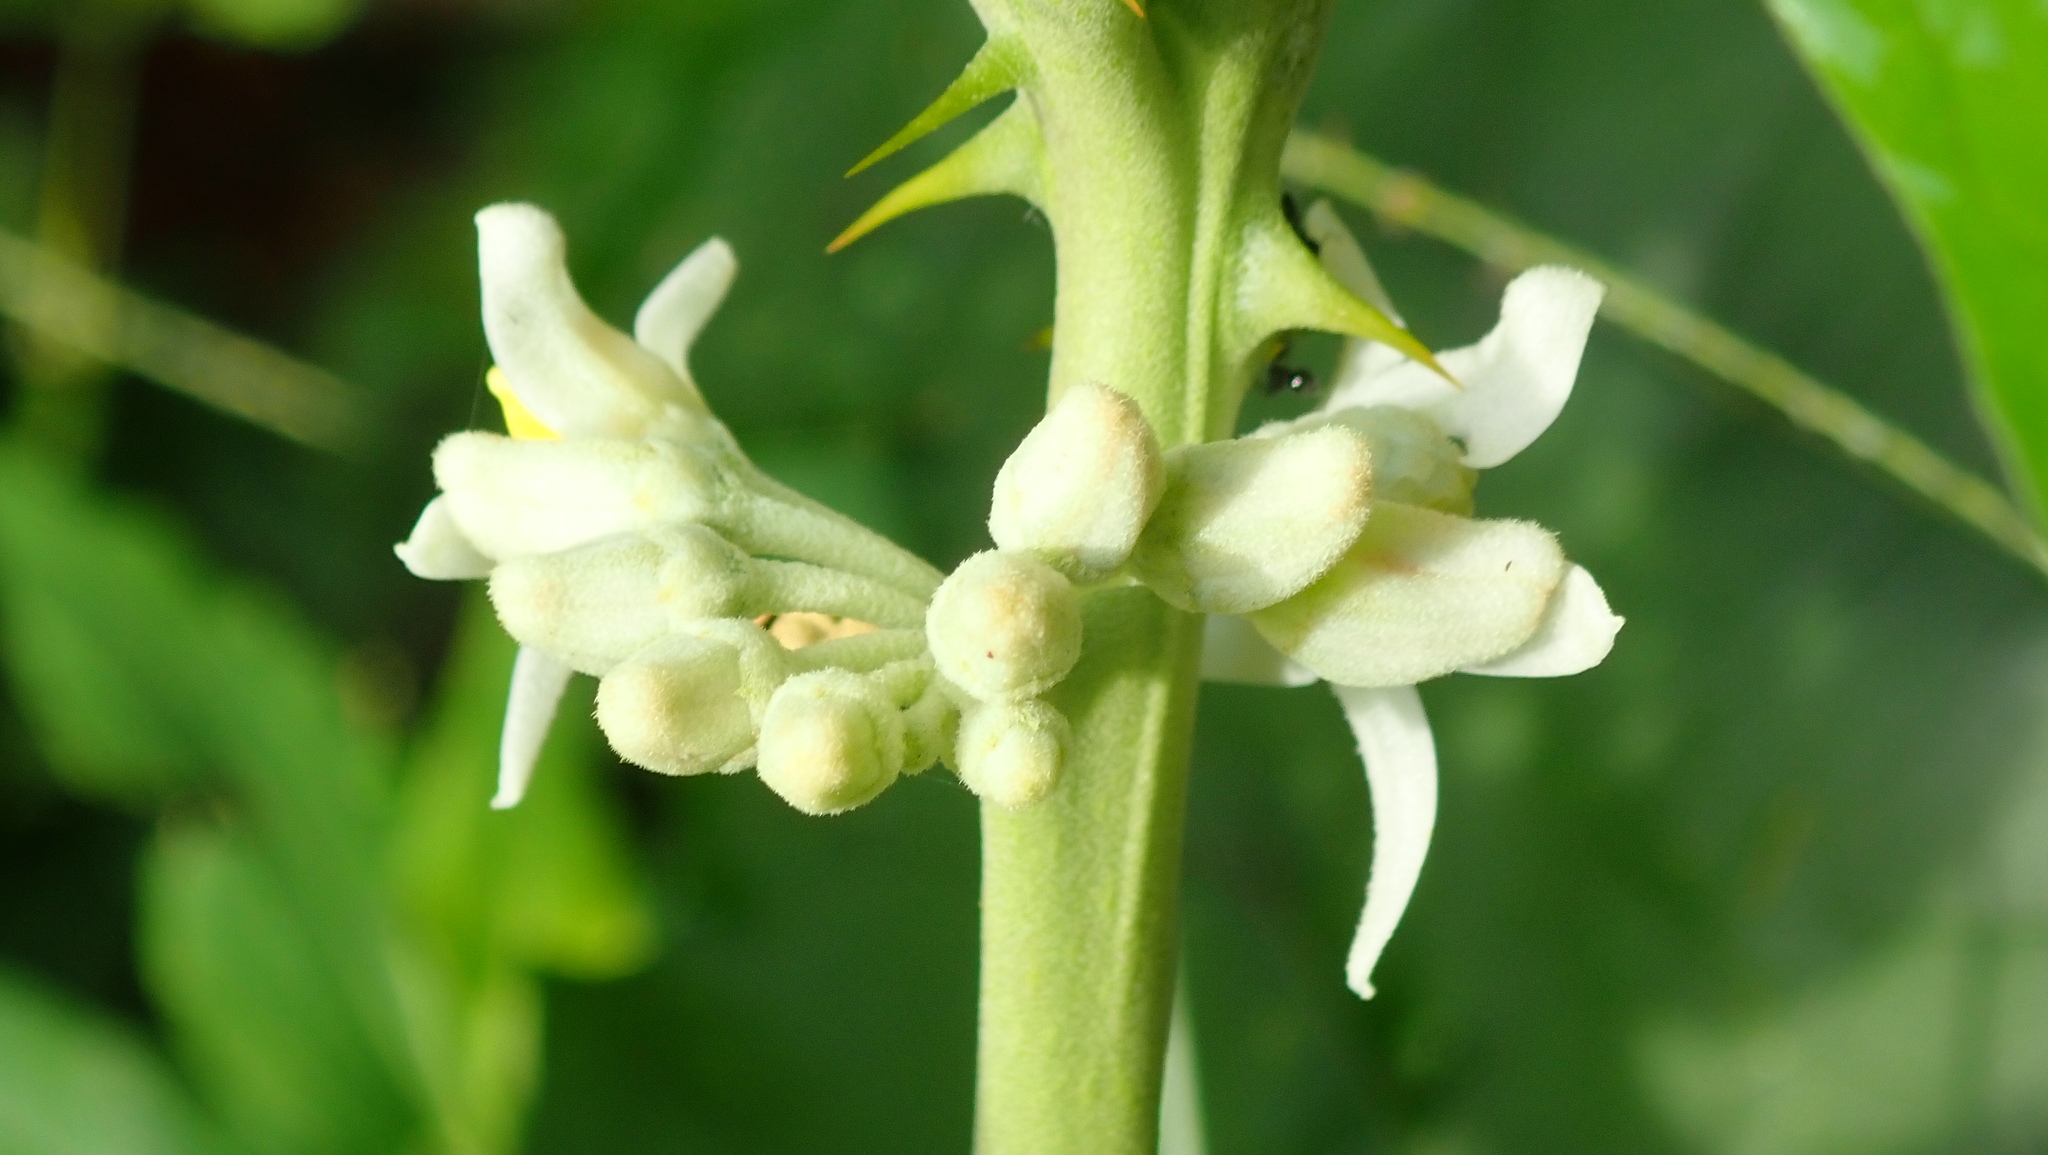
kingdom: Plantae
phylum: Tracheophyta
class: Magnoliopsida
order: Solanales
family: Solanaceae
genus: Solanum
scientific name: Solanum
